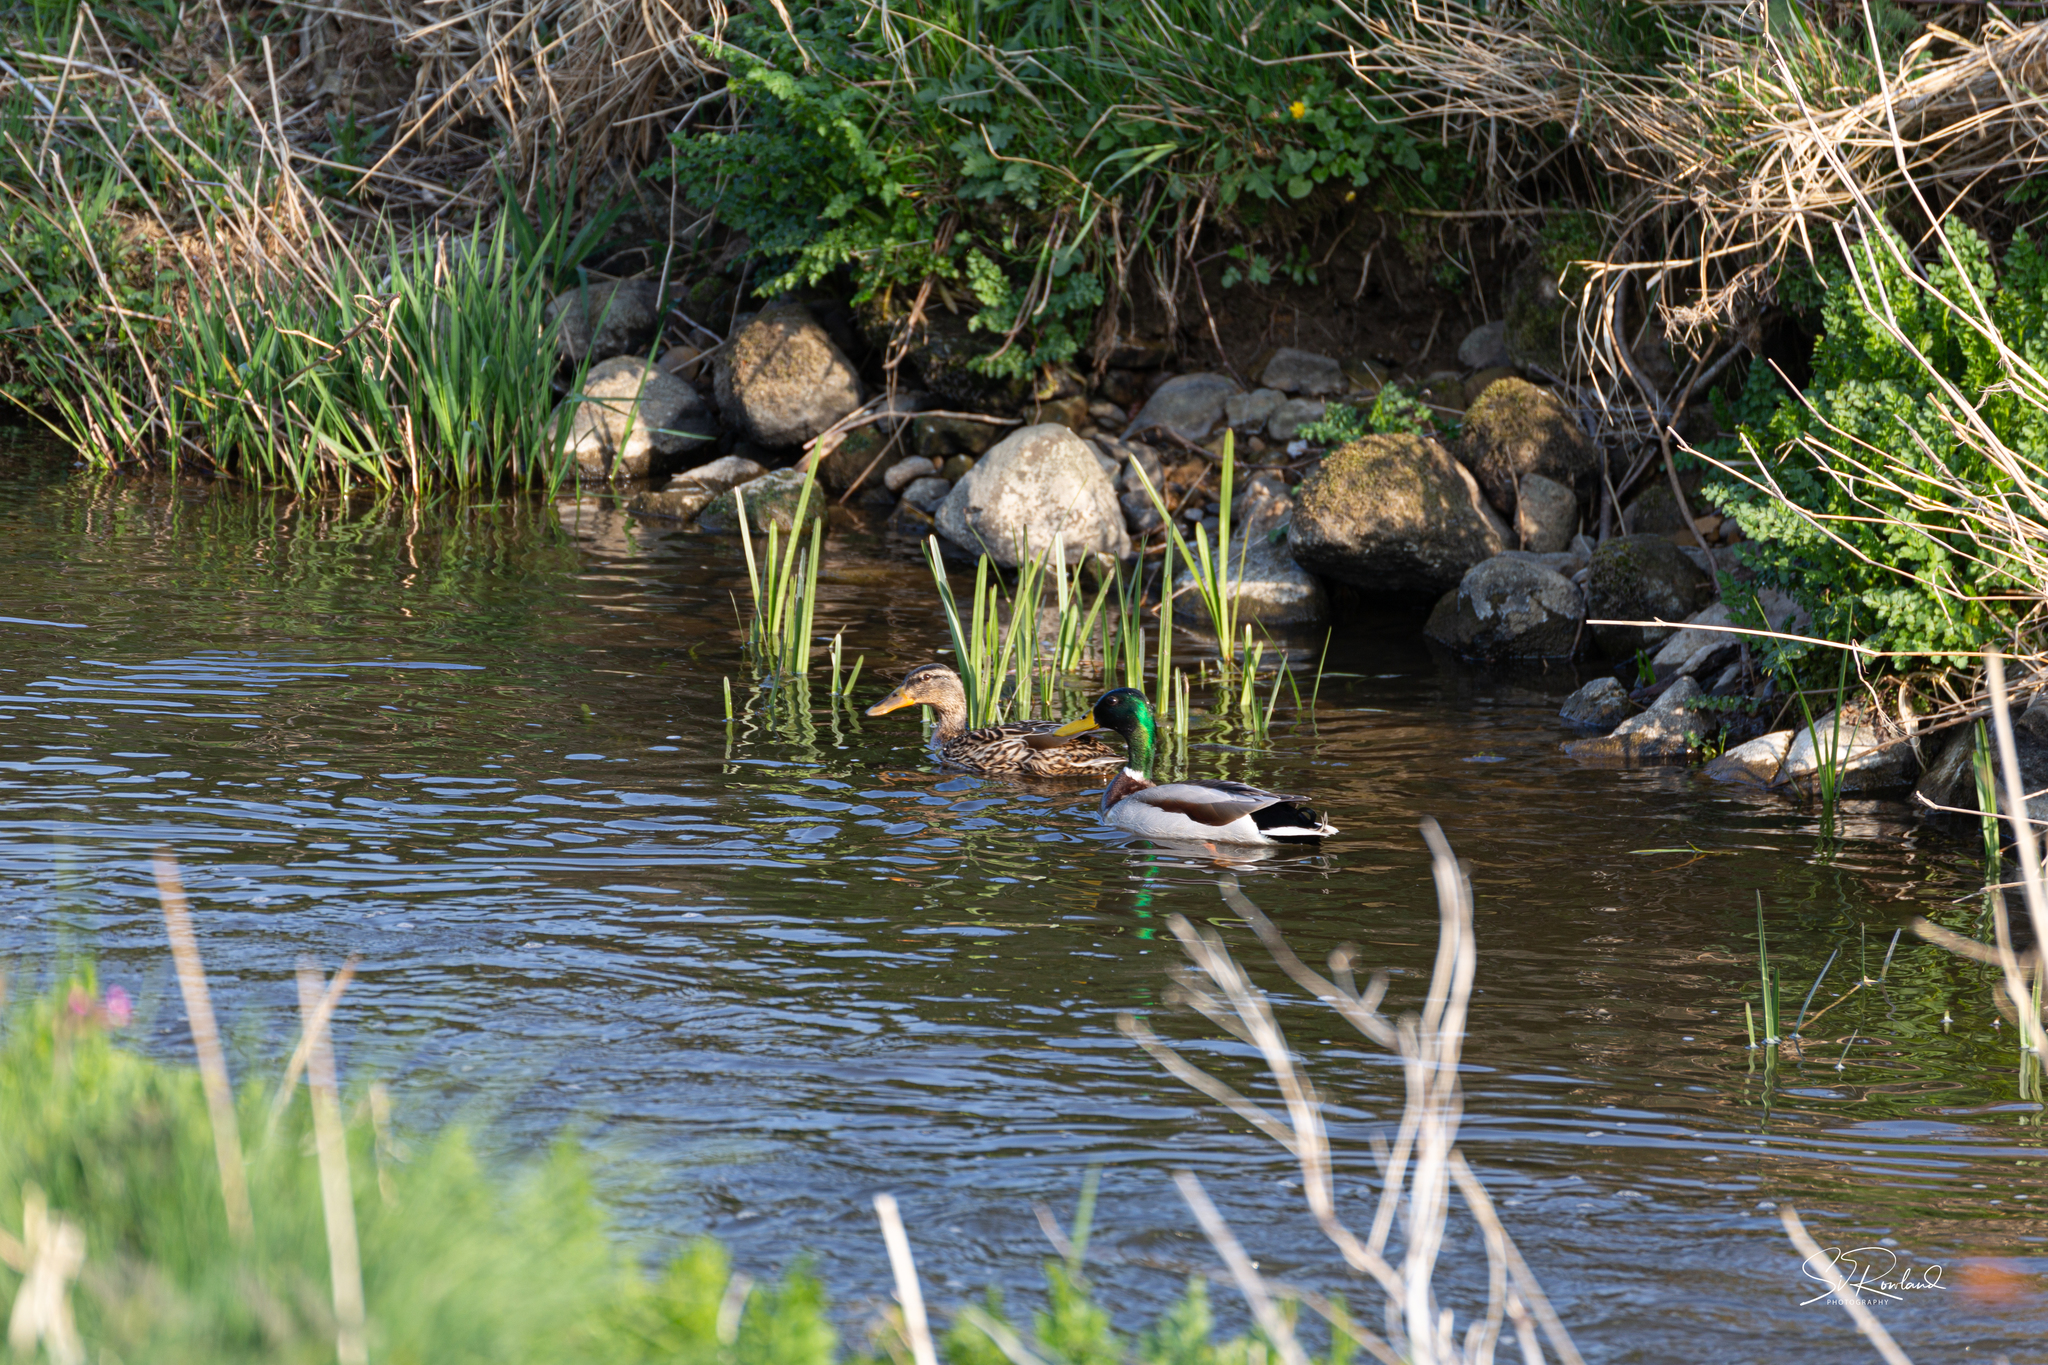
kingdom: Animalia
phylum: Chordata
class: Aves
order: Anseriformes
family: Anatidae
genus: Anas
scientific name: Anas platyrhynchos
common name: Mallard
